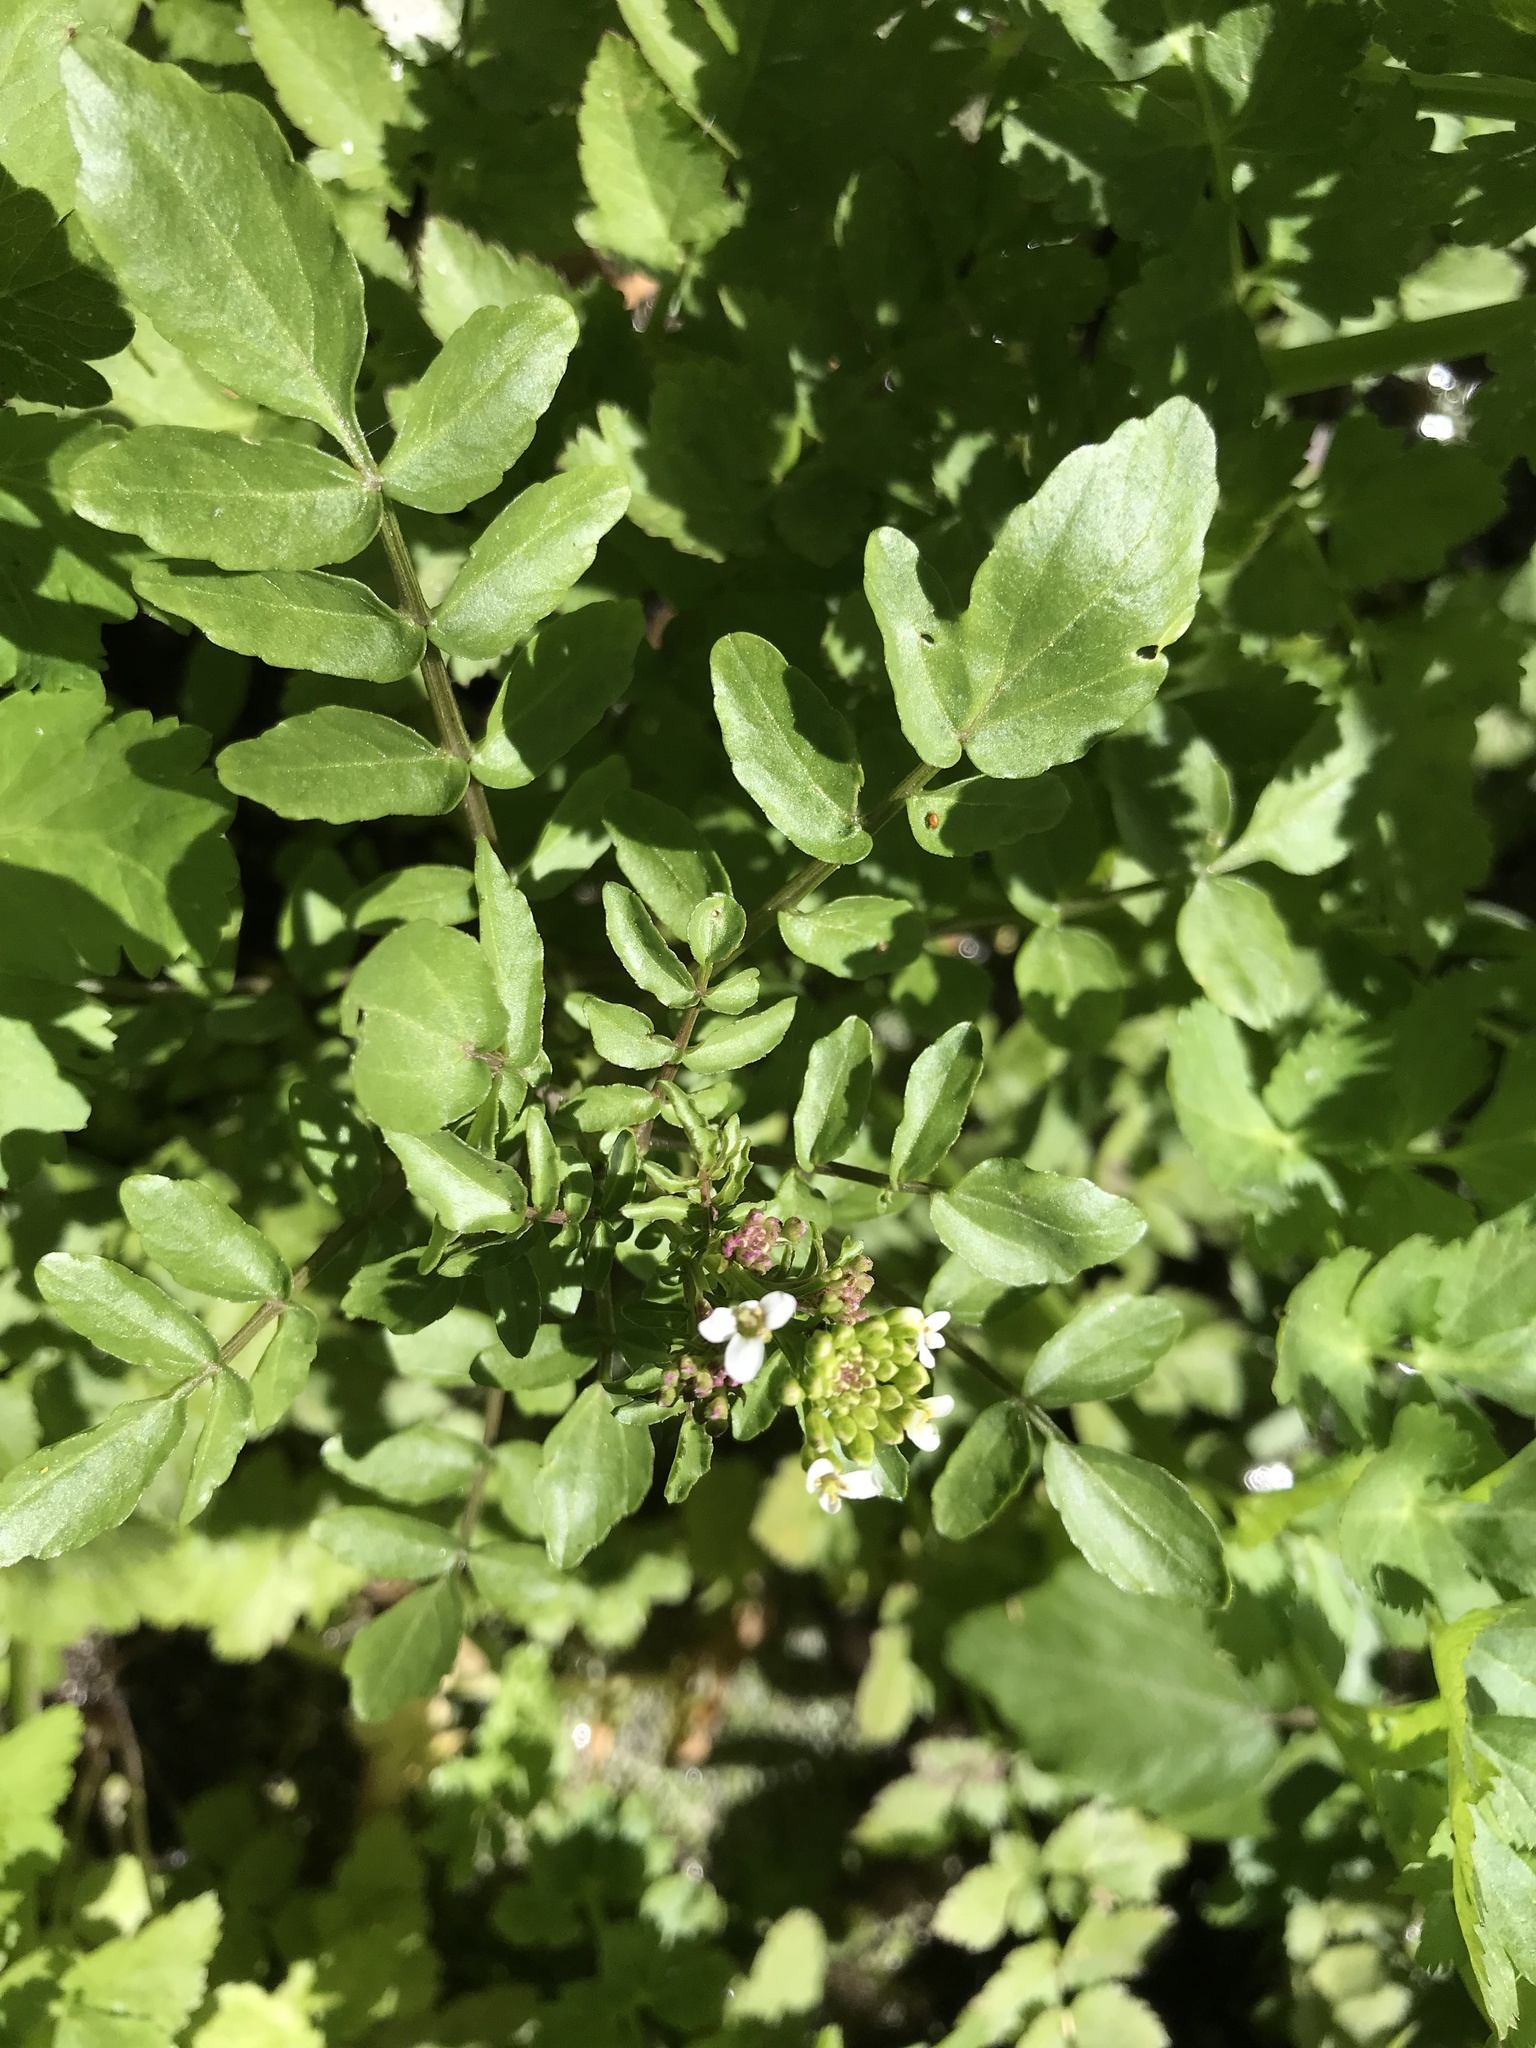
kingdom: Plantae
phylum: Tracheophyta
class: Magnoliopsida
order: Brassicales
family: Brassicaceae
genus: Nasturtium
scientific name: Nasturtium officinale
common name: Watercress
